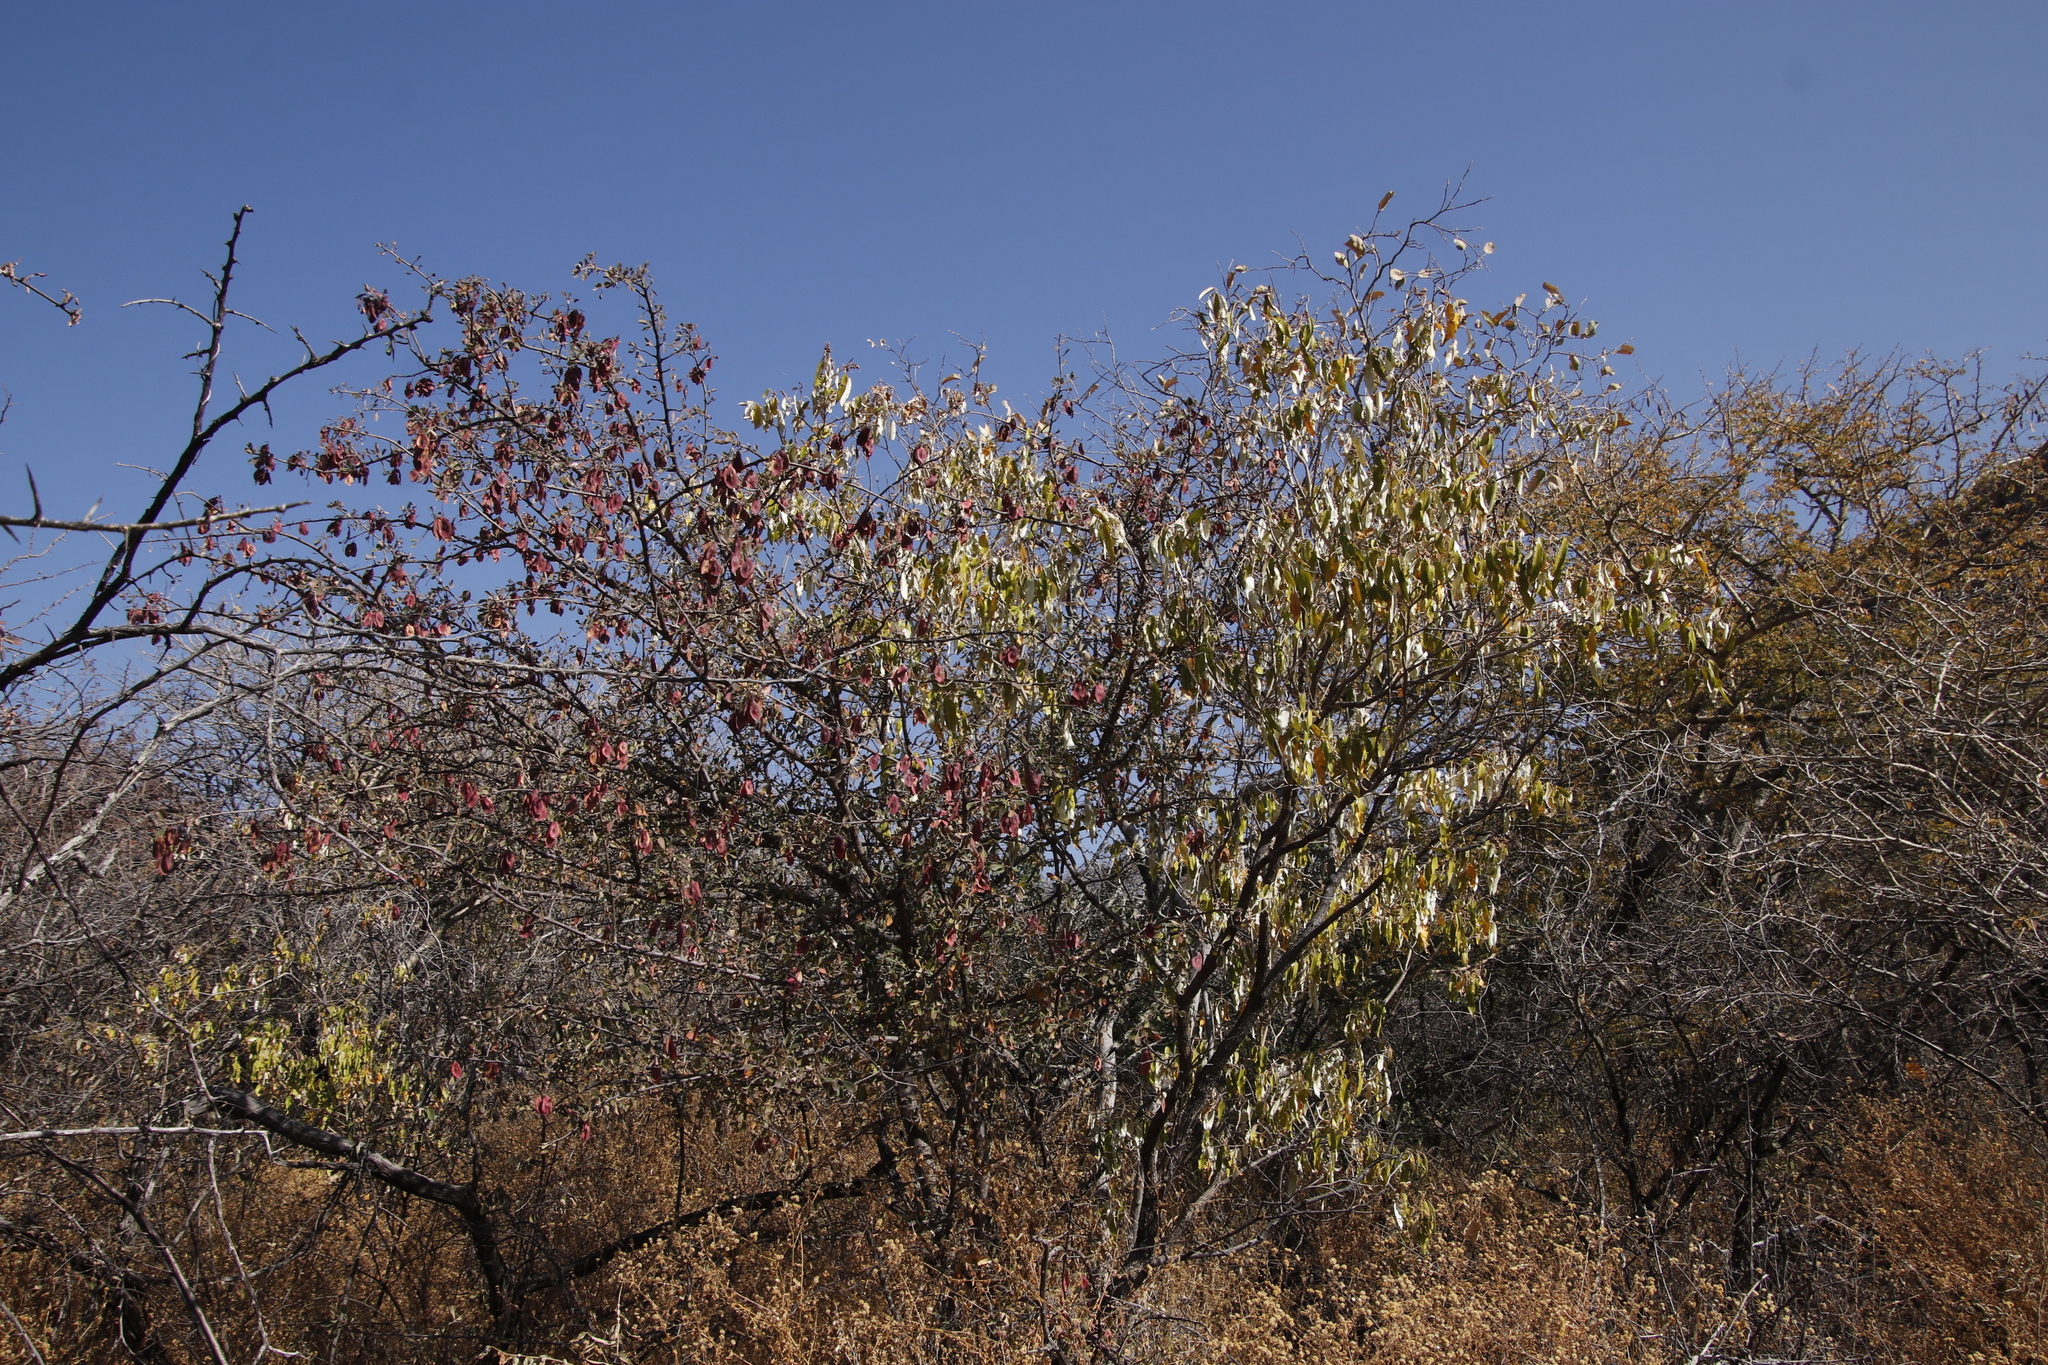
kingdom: Plantae
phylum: Tracheophyta
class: Magnoliopsida
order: Myrtales
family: Combretaceae
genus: Terminalia
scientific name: Terminalia prunioides
